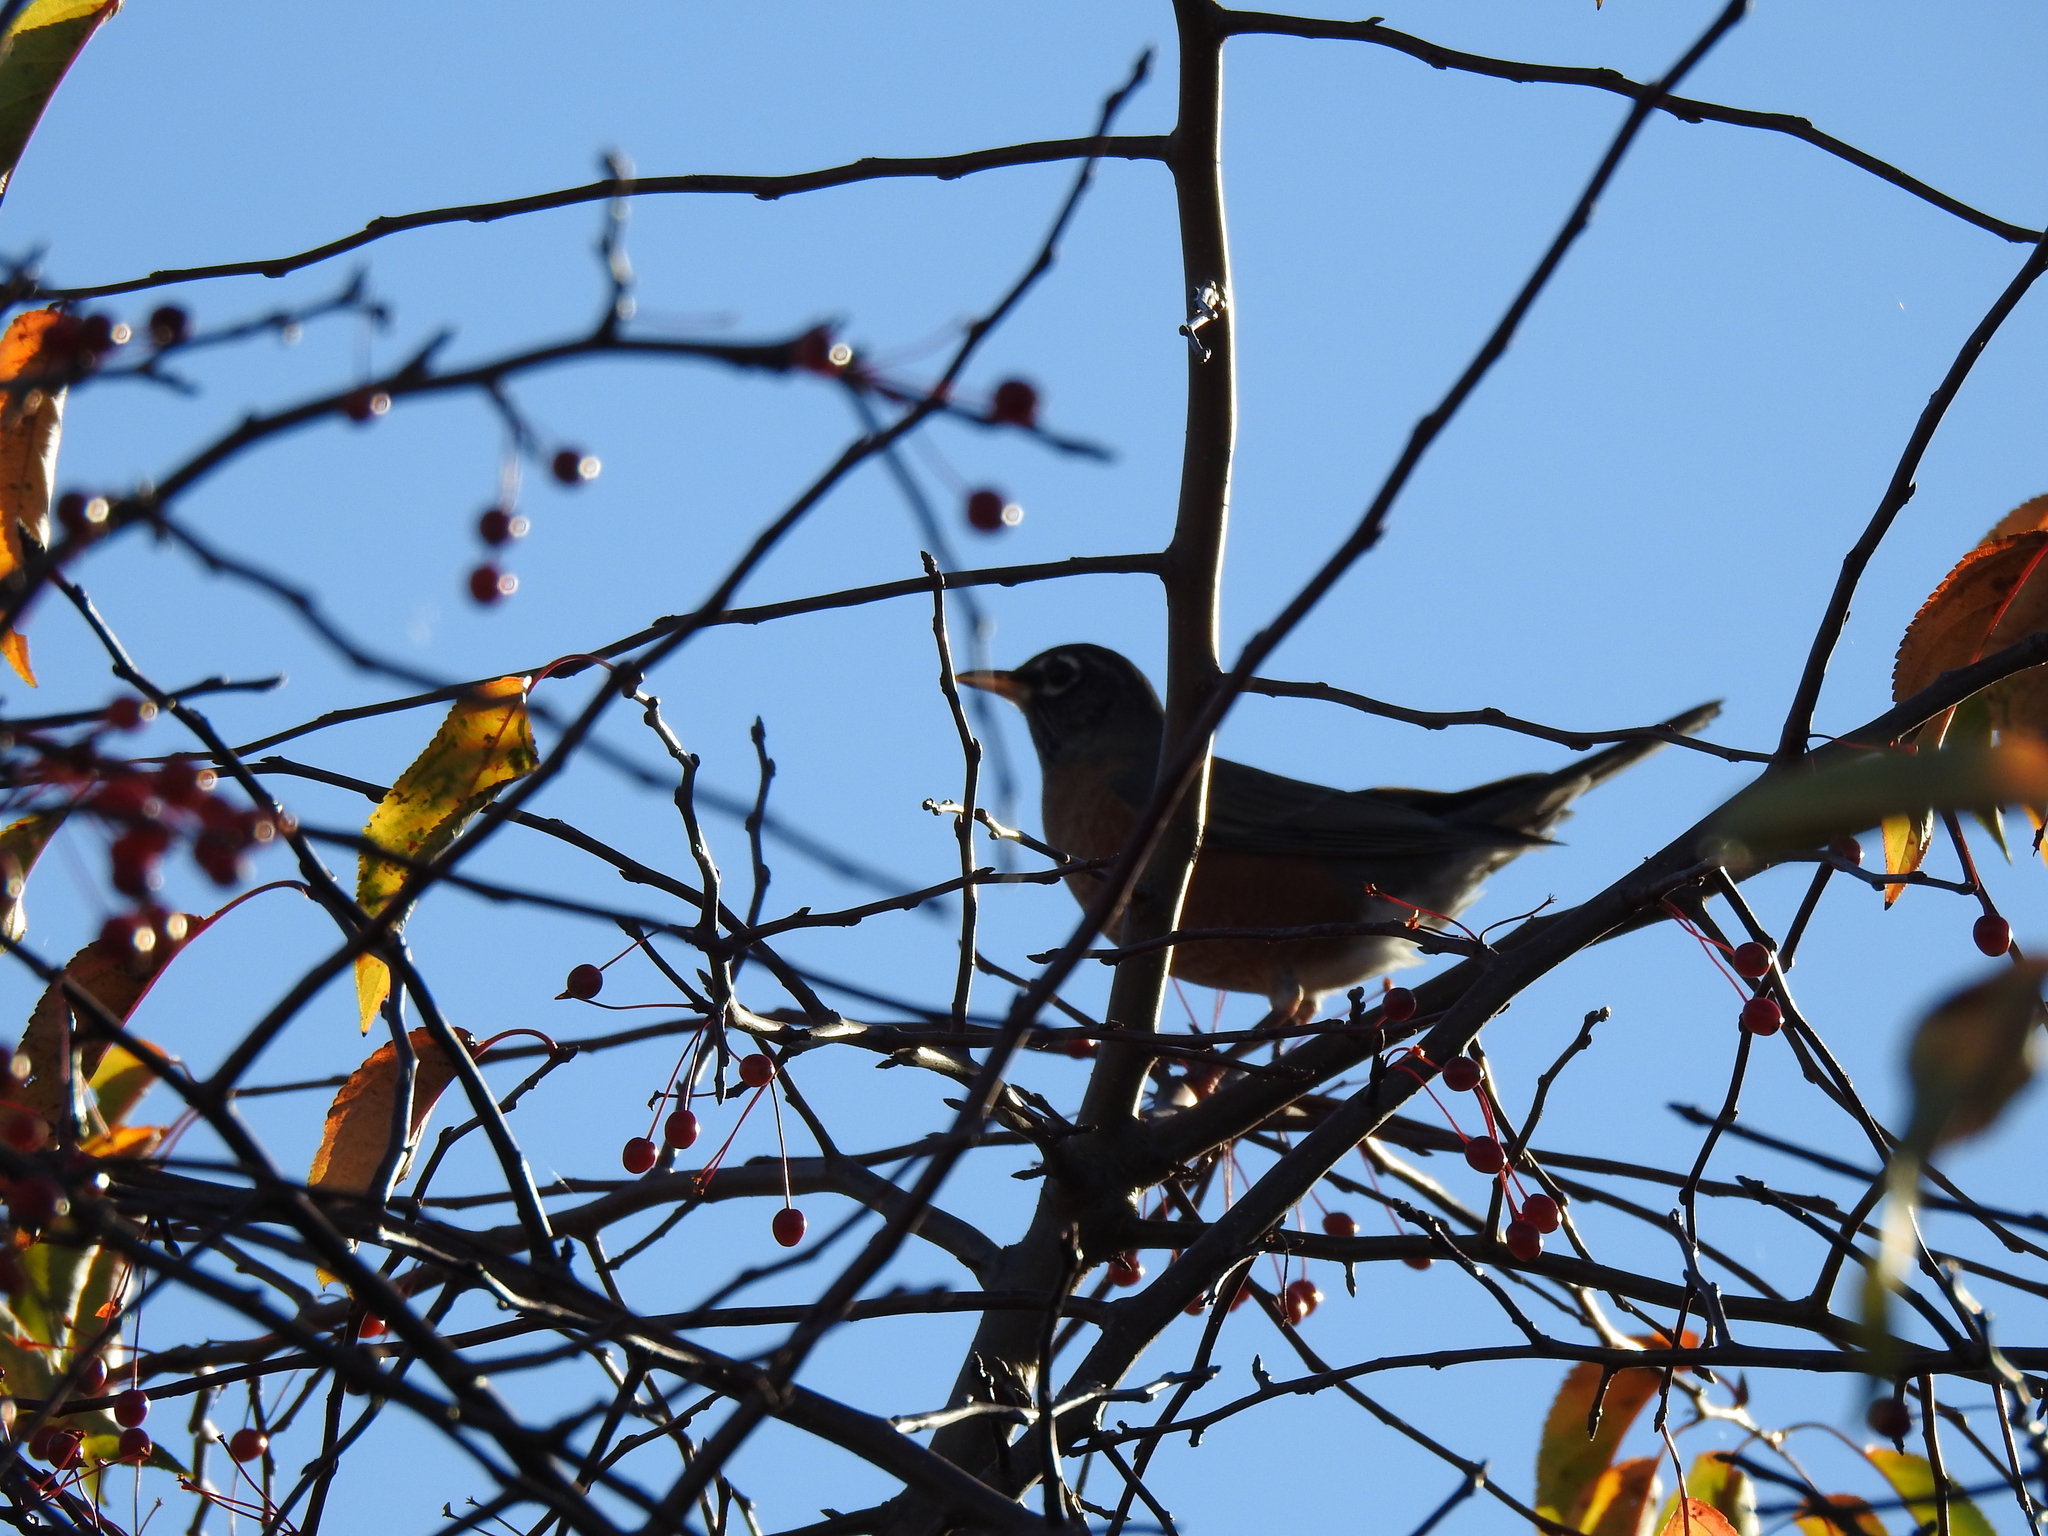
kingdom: Animalia
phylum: Chordata
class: Aves
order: Passeriformes
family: Turdidae
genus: Turdus
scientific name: Turdus migratorius
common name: American robin
